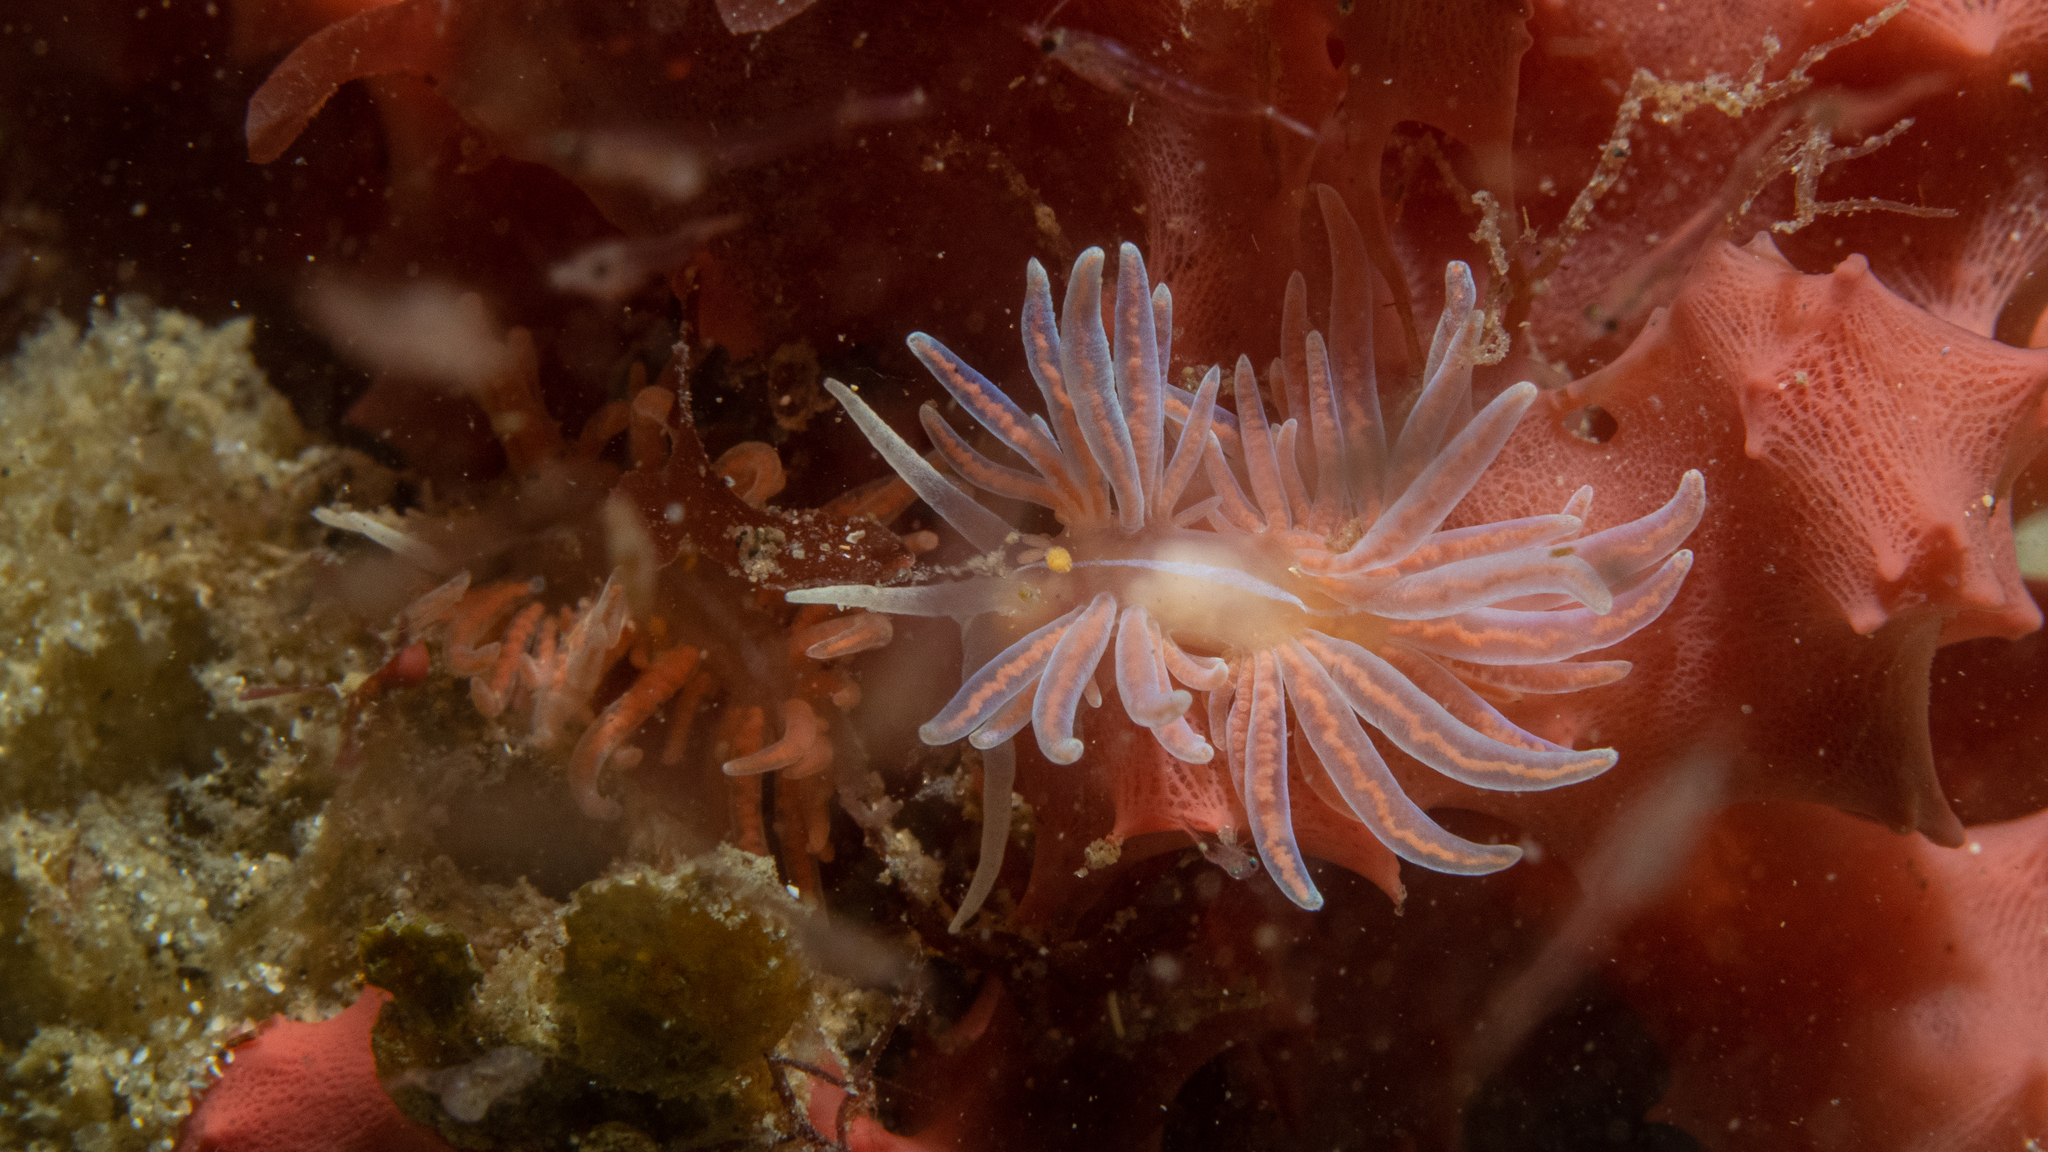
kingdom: Animalia
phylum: Mollusca
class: Gastropoda
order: Nudibranchia
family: Myrrhinidae
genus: Phyllodesmium
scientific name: Phyllodesmium serratum
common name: Coral nudibranch
